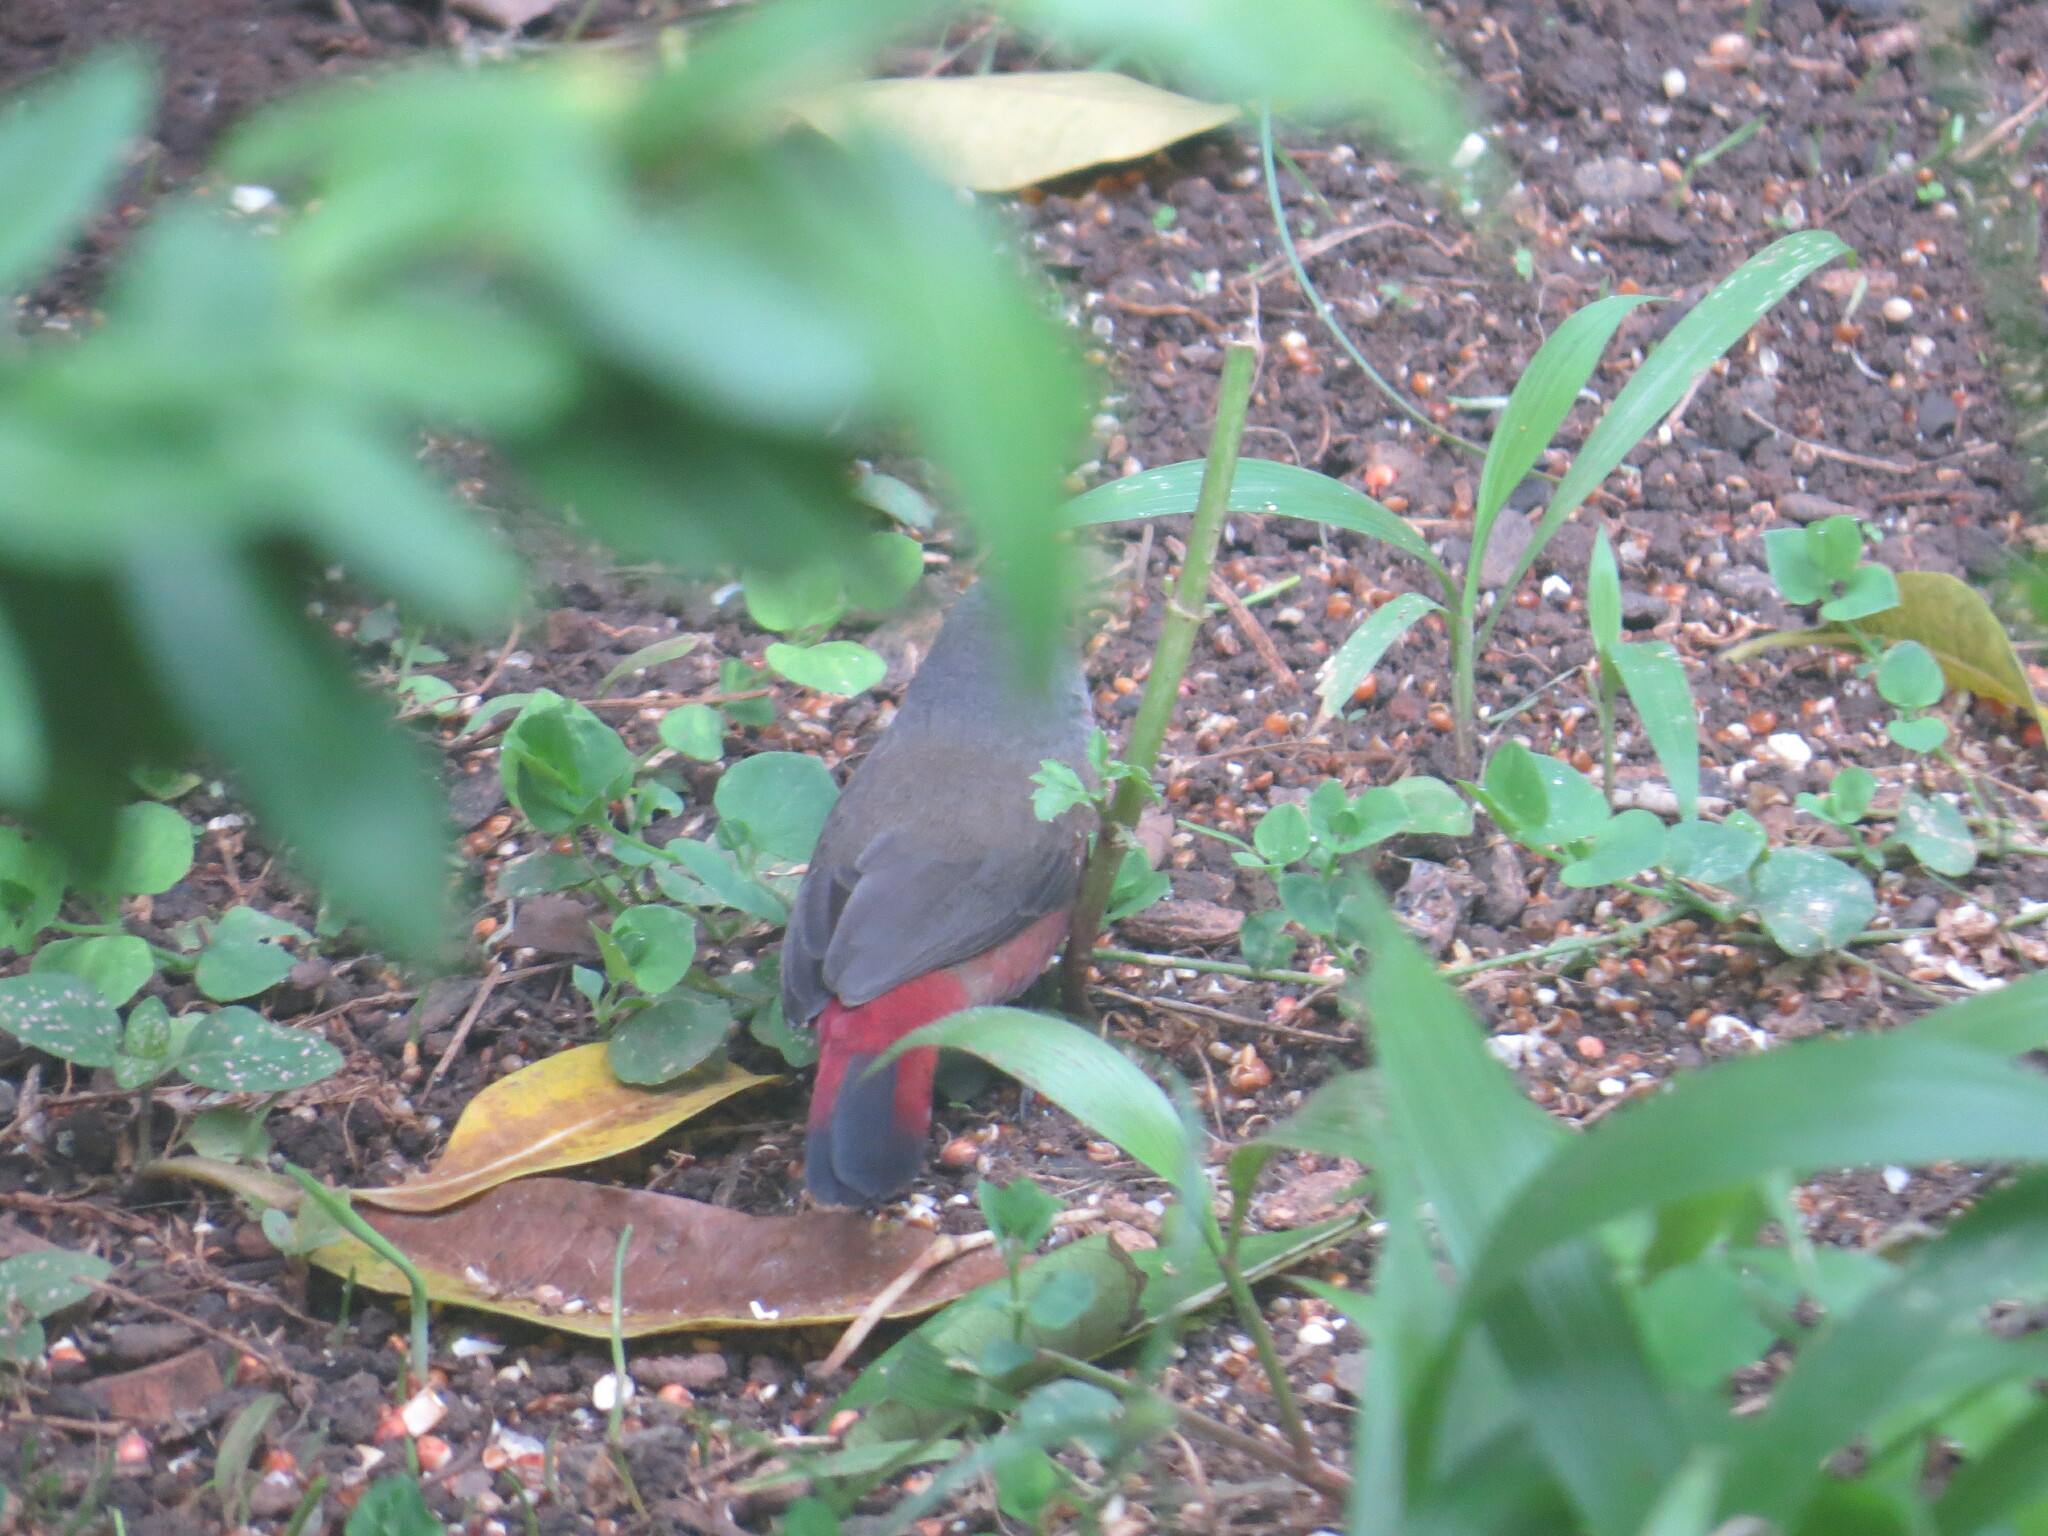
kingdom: Animalia
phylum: Chordata
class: Aves
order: Passeriformes
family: Estrildidae
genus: Lagonosticta
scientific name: Lagonosticta rubricata
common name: African firefinch
